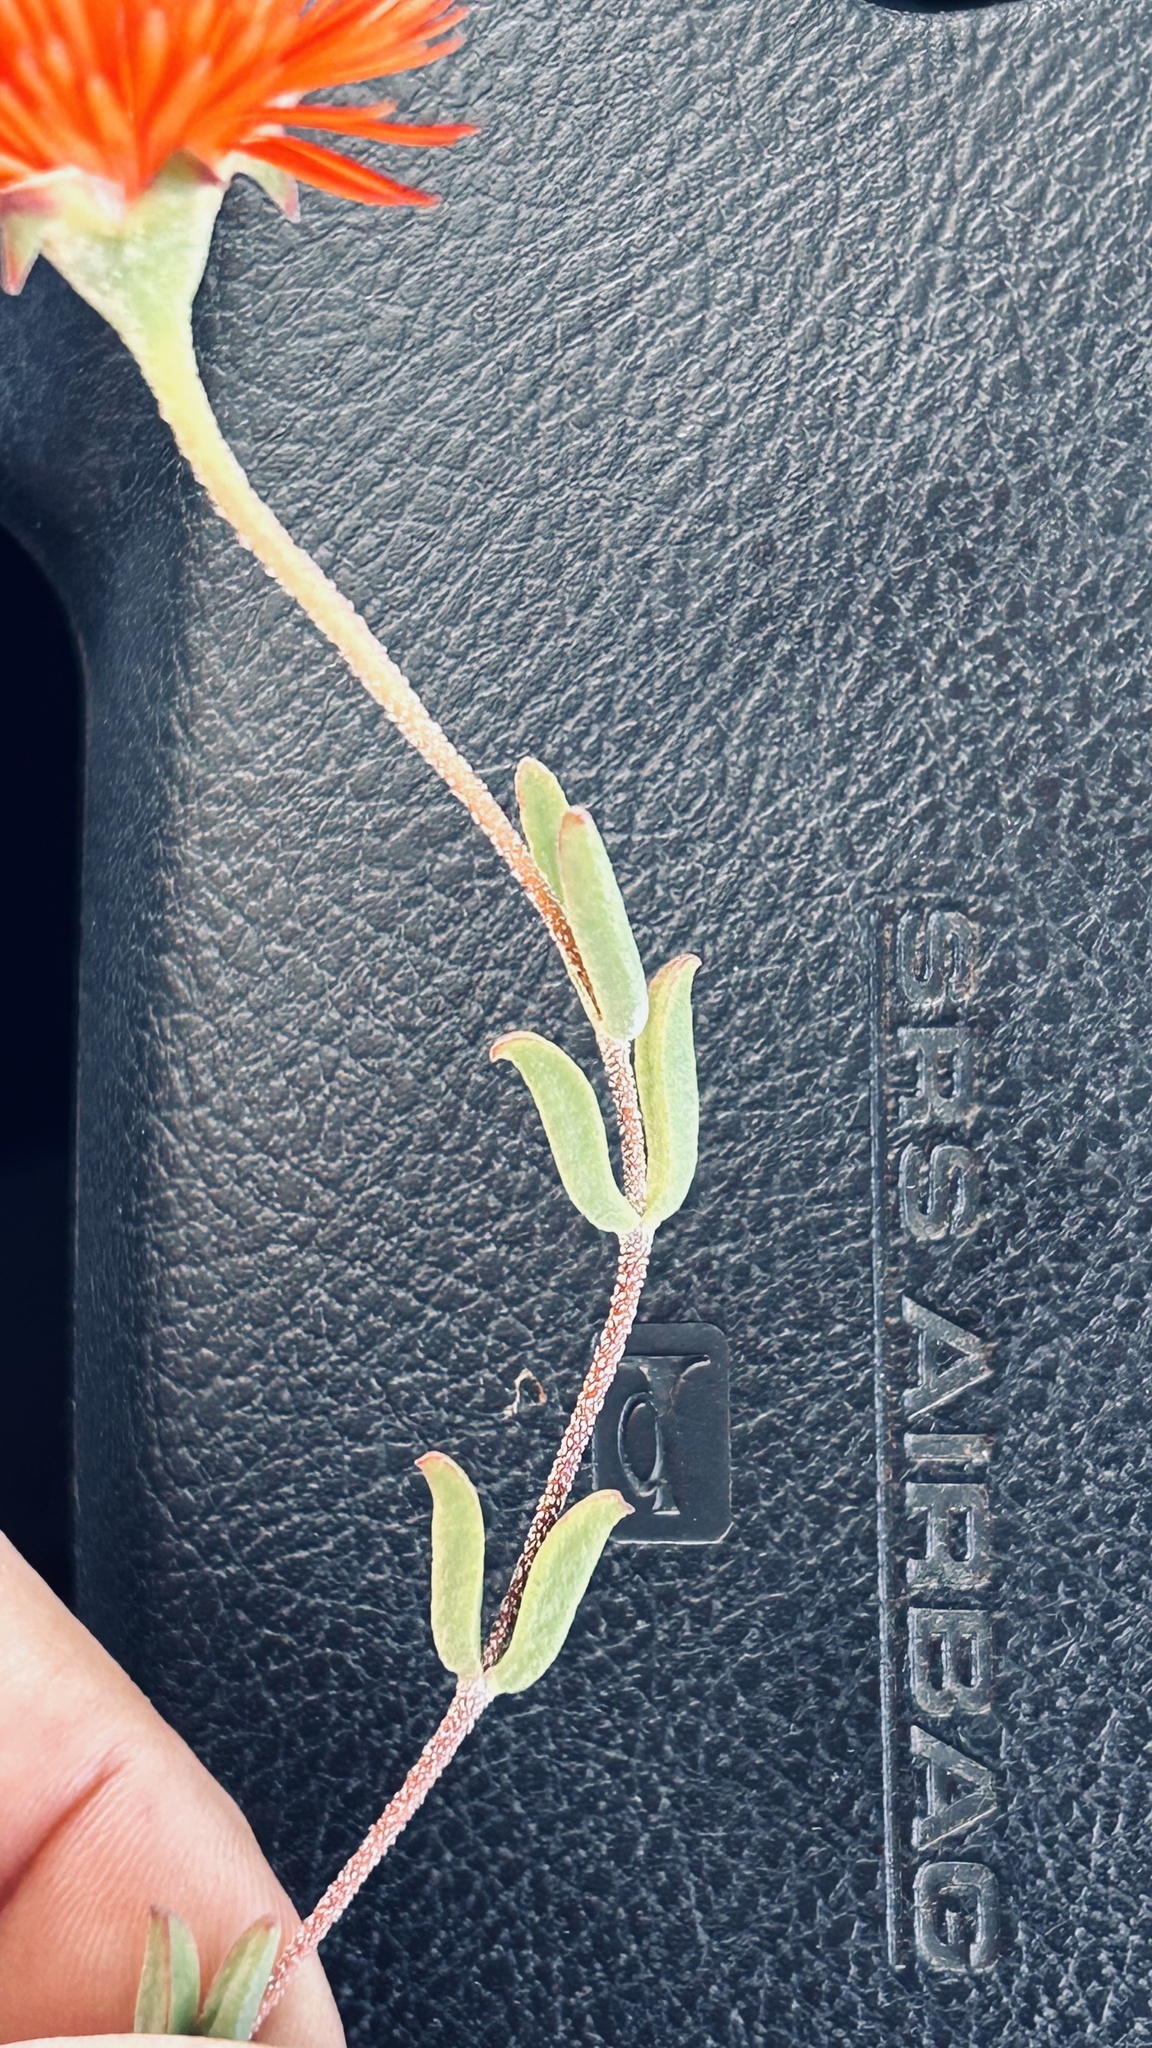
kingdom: Plantae
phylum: Tracheophyta
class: Magnoliopsida
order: Caryophyllales
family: Aizoaceae
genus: Drosanthemum
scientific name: Drosanthemum lavisii
